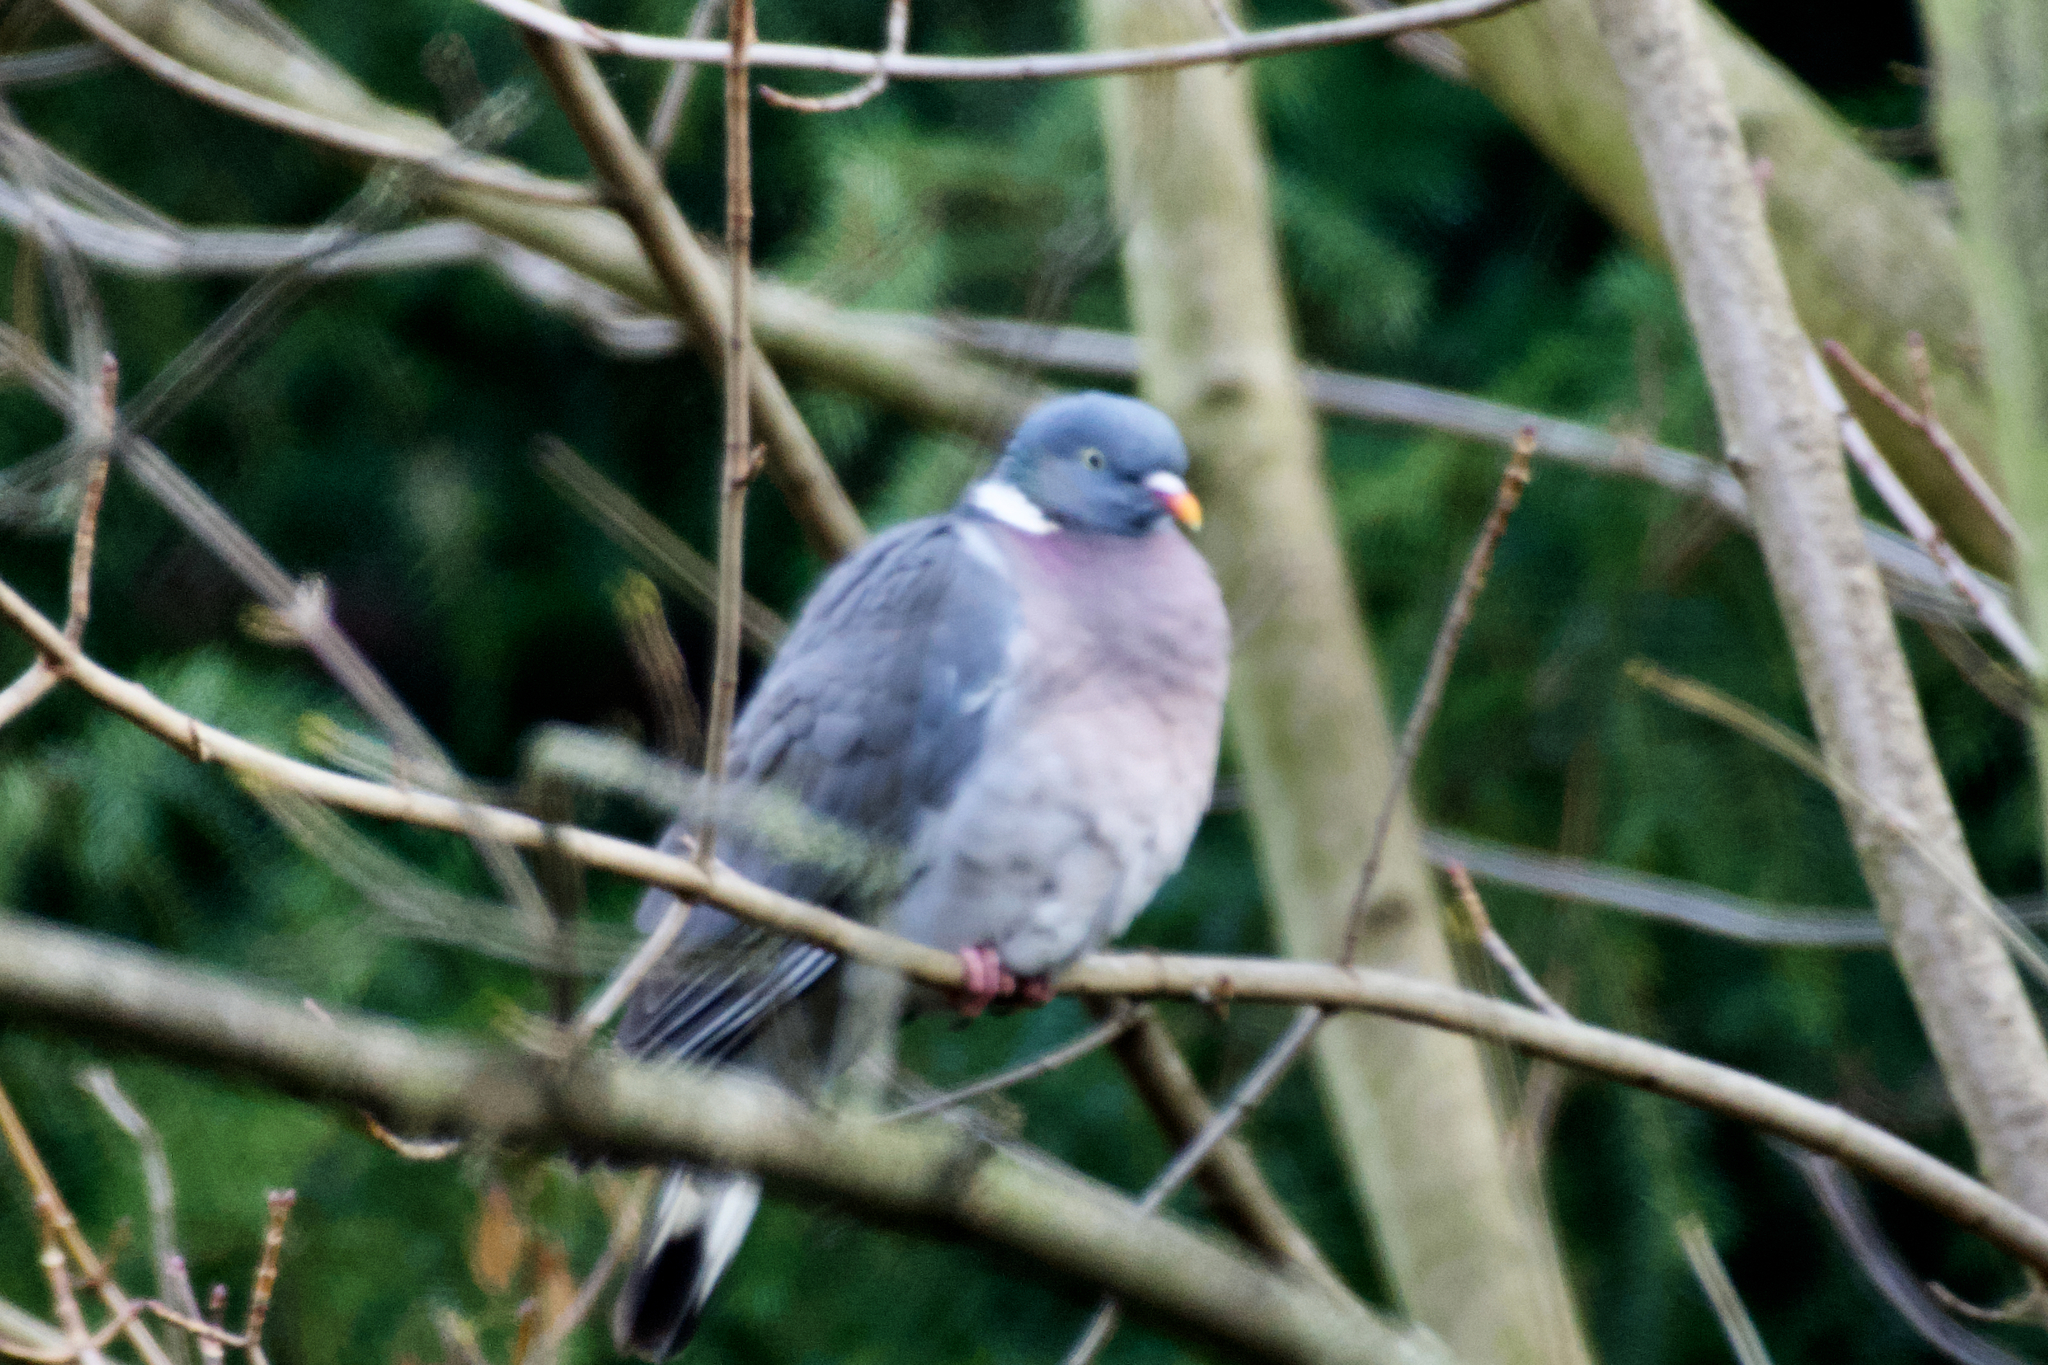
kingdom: Animalia
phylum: Chordata
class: Aves
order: Columbiformes
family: Columbidae
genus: Columba
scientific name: Columba palumbus
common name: Common wood pigeon
